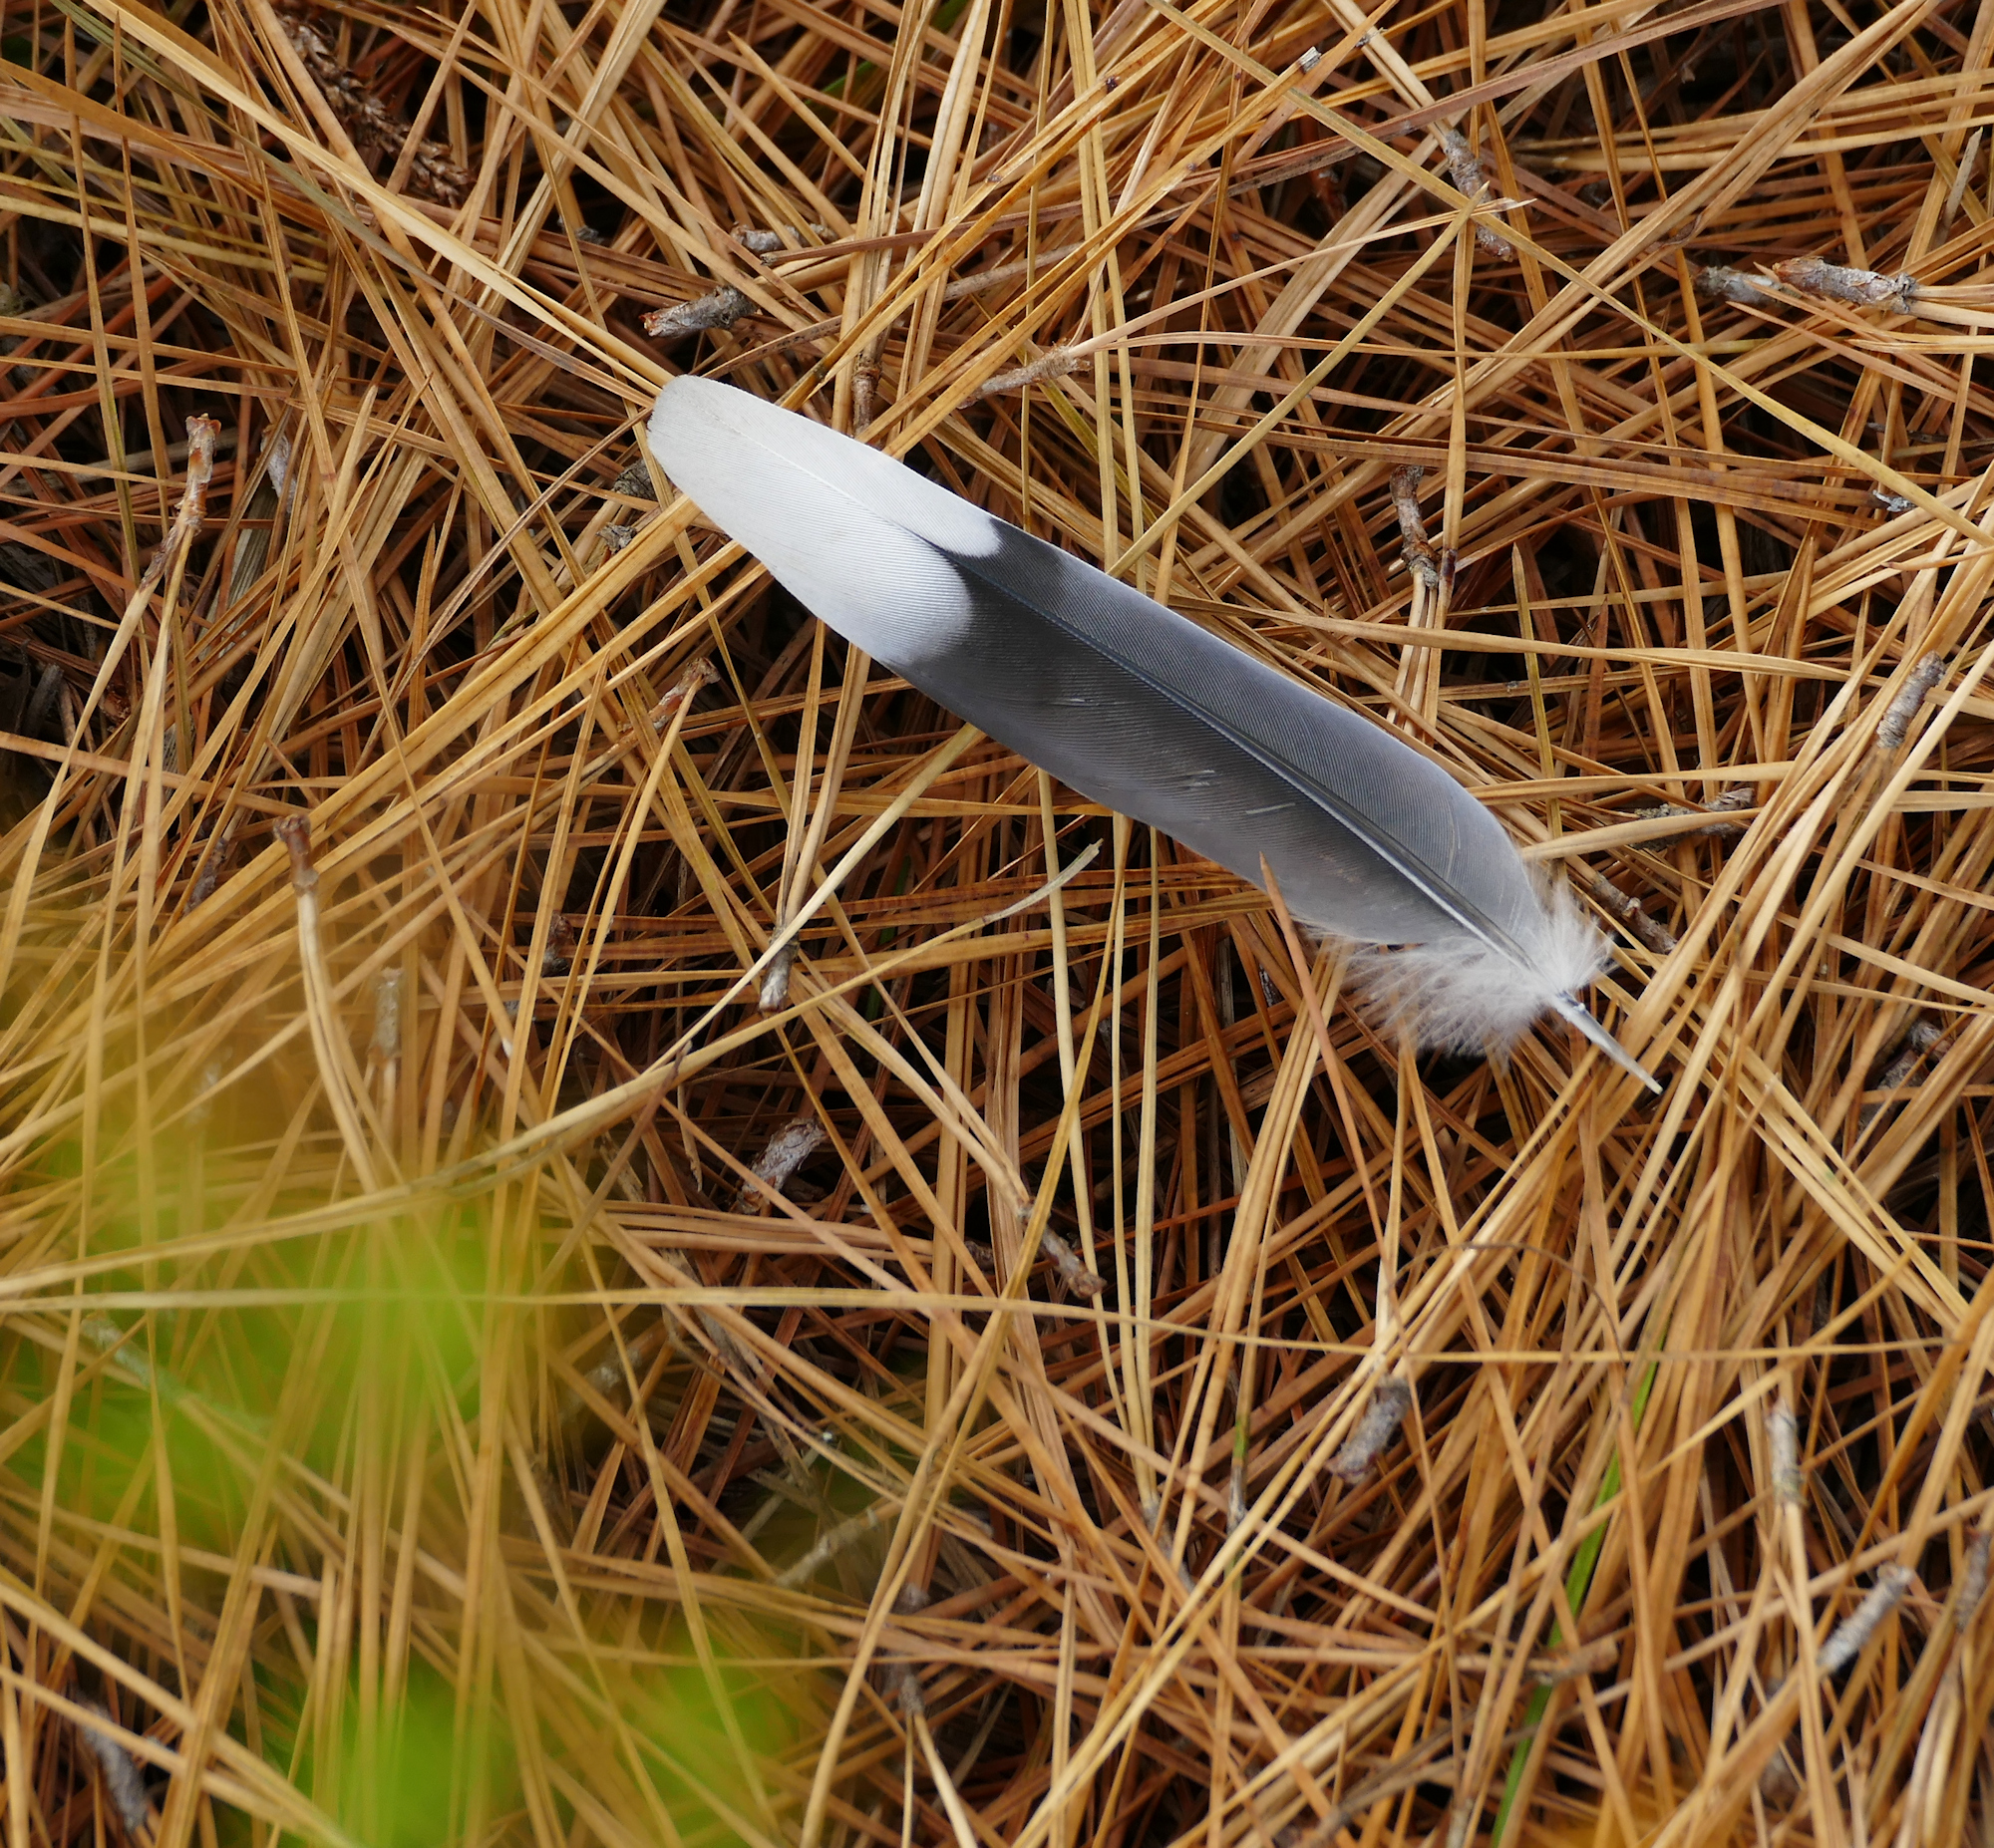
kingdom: Animalia
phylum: Chordata
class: Aves
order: Columbiformes
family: Columbidae
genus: Zenaida
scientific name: Zenaida macroura
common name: Mourning dove
